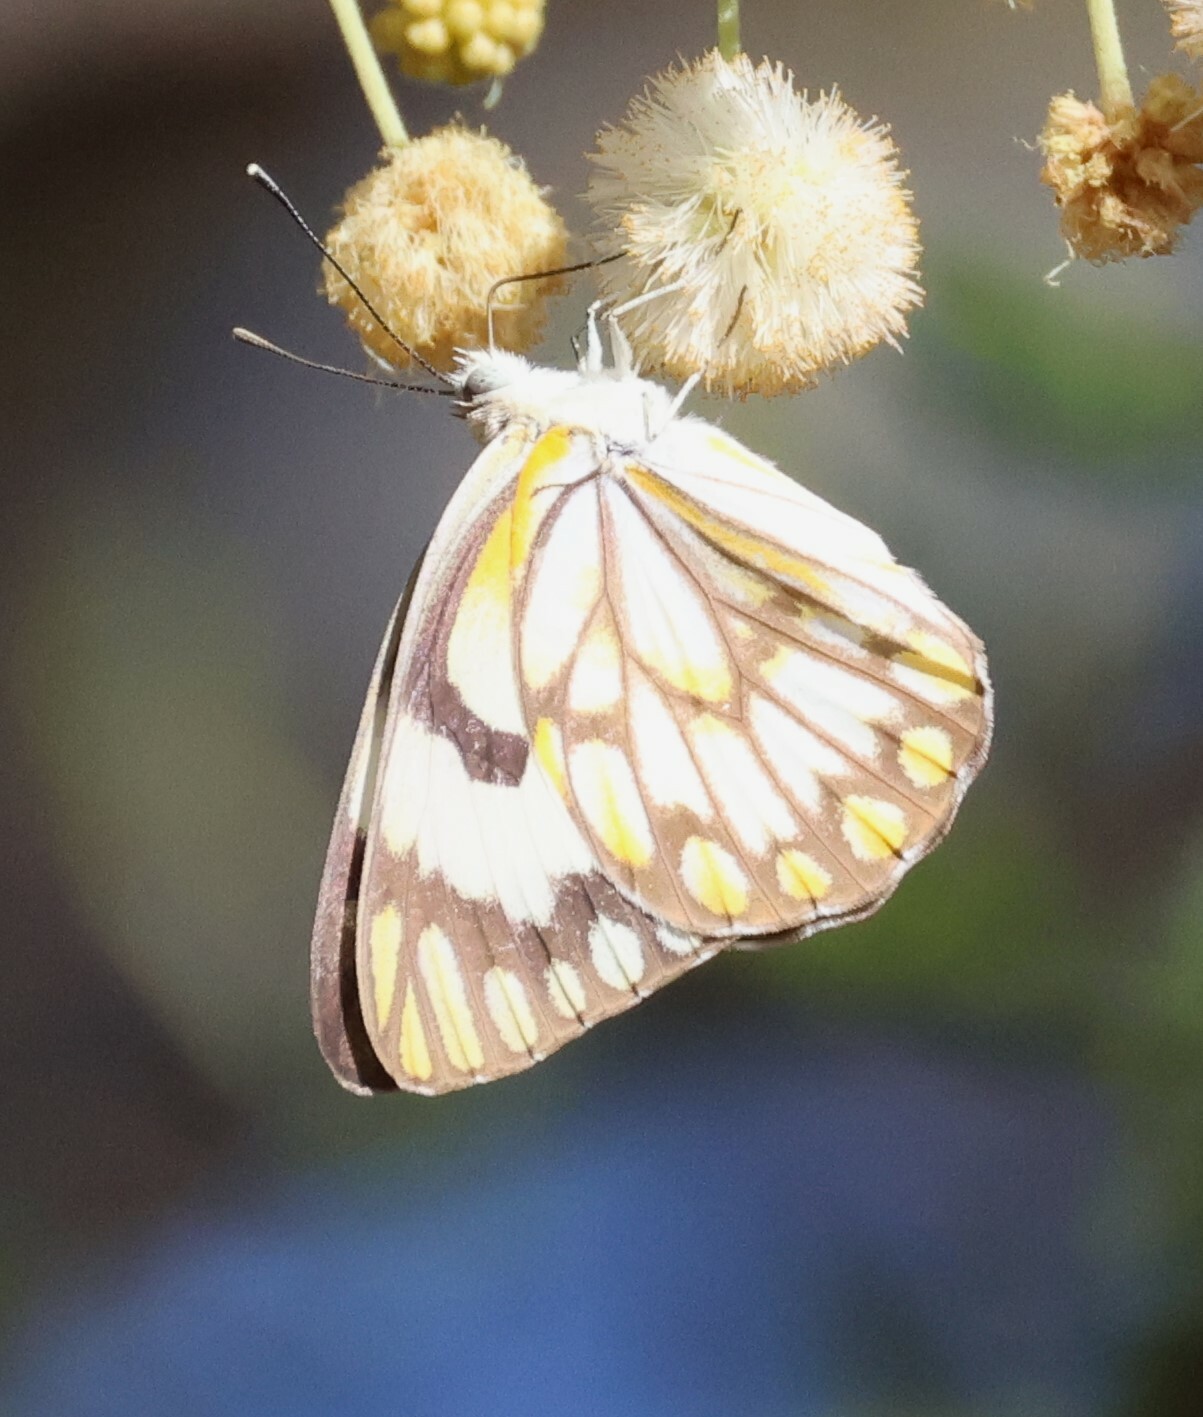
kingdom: Animalia
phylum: Arthropoda
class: Insecta
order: Lepidoptera
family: Pieridae
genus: Belenois
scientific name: Belenois aurota
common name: Brown-veined white
